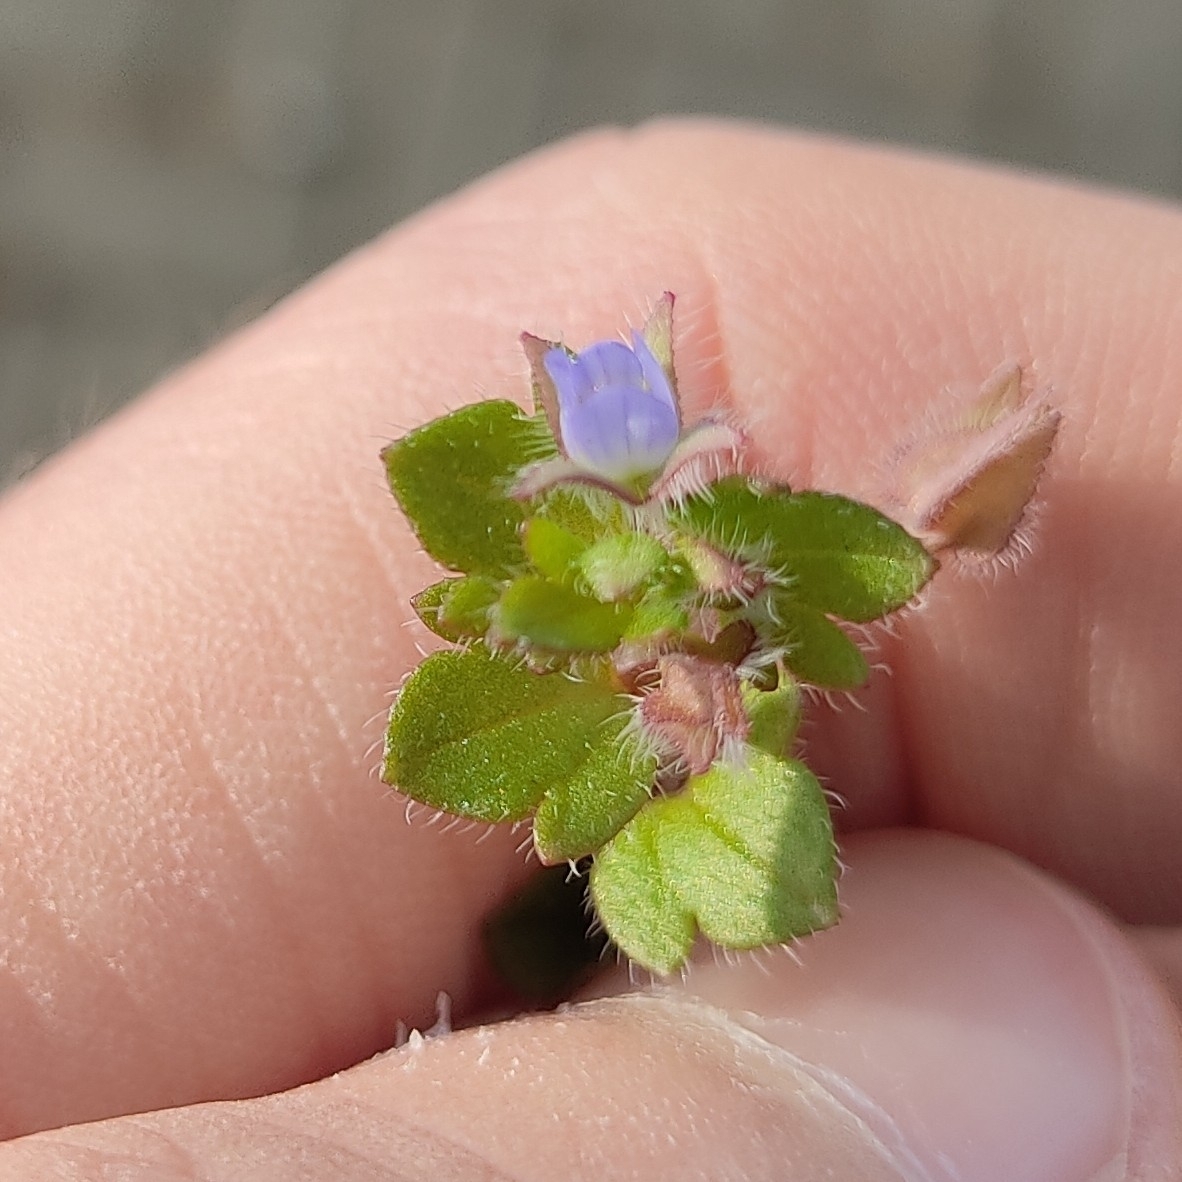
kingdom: Plantae
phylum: Tracheophyta
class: Magnoliopsida
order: Lamiales
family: Plantaginaceae
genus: Veronica
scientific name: Veronica hederifolia
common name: Ivy-leaved speedwell
